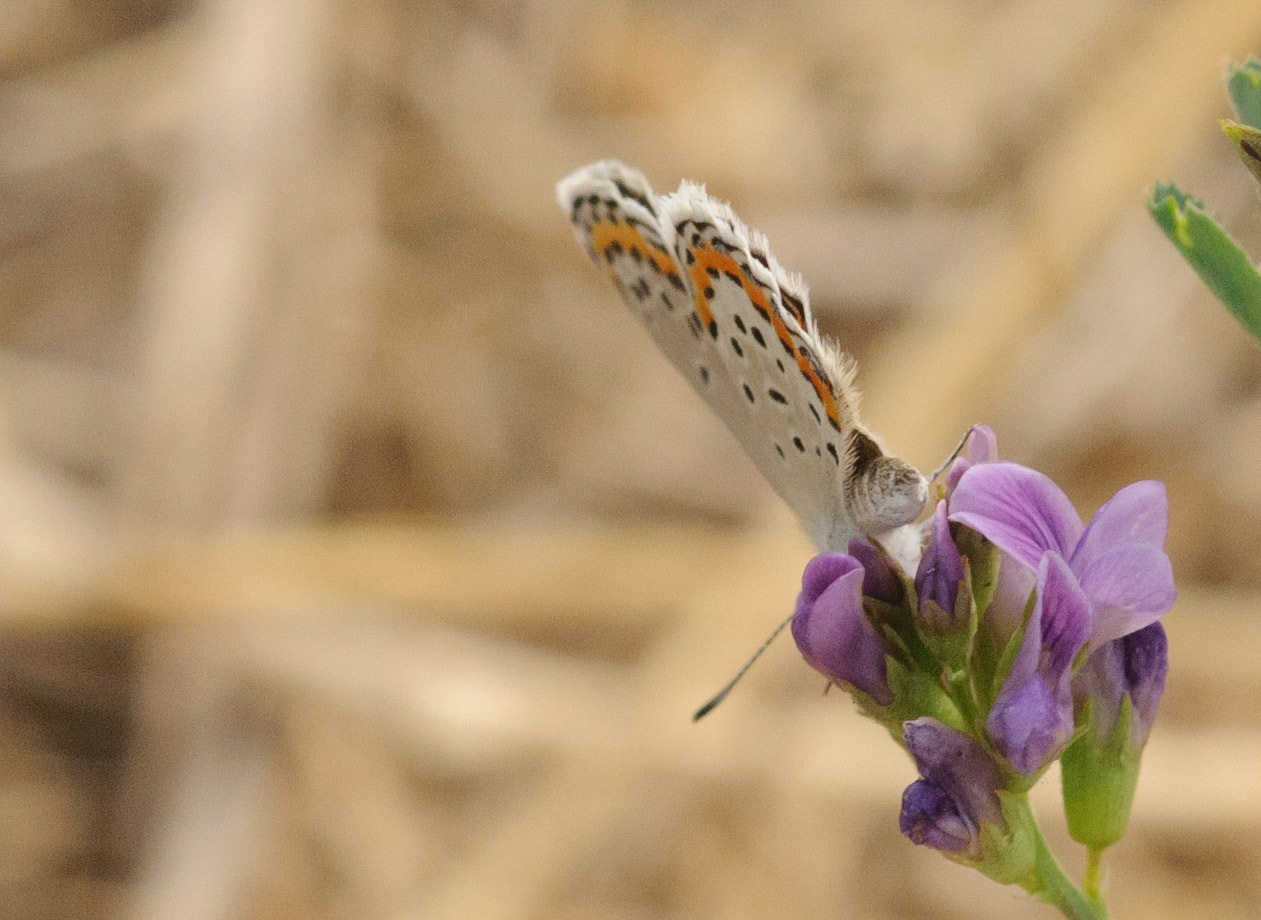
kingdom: Animalia
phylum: Arthropoda
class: Insecta
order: Lepidoptera
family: Lycaenidae
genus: Lycaeides
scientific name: Lycaeides melissa
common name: Melissa blue
